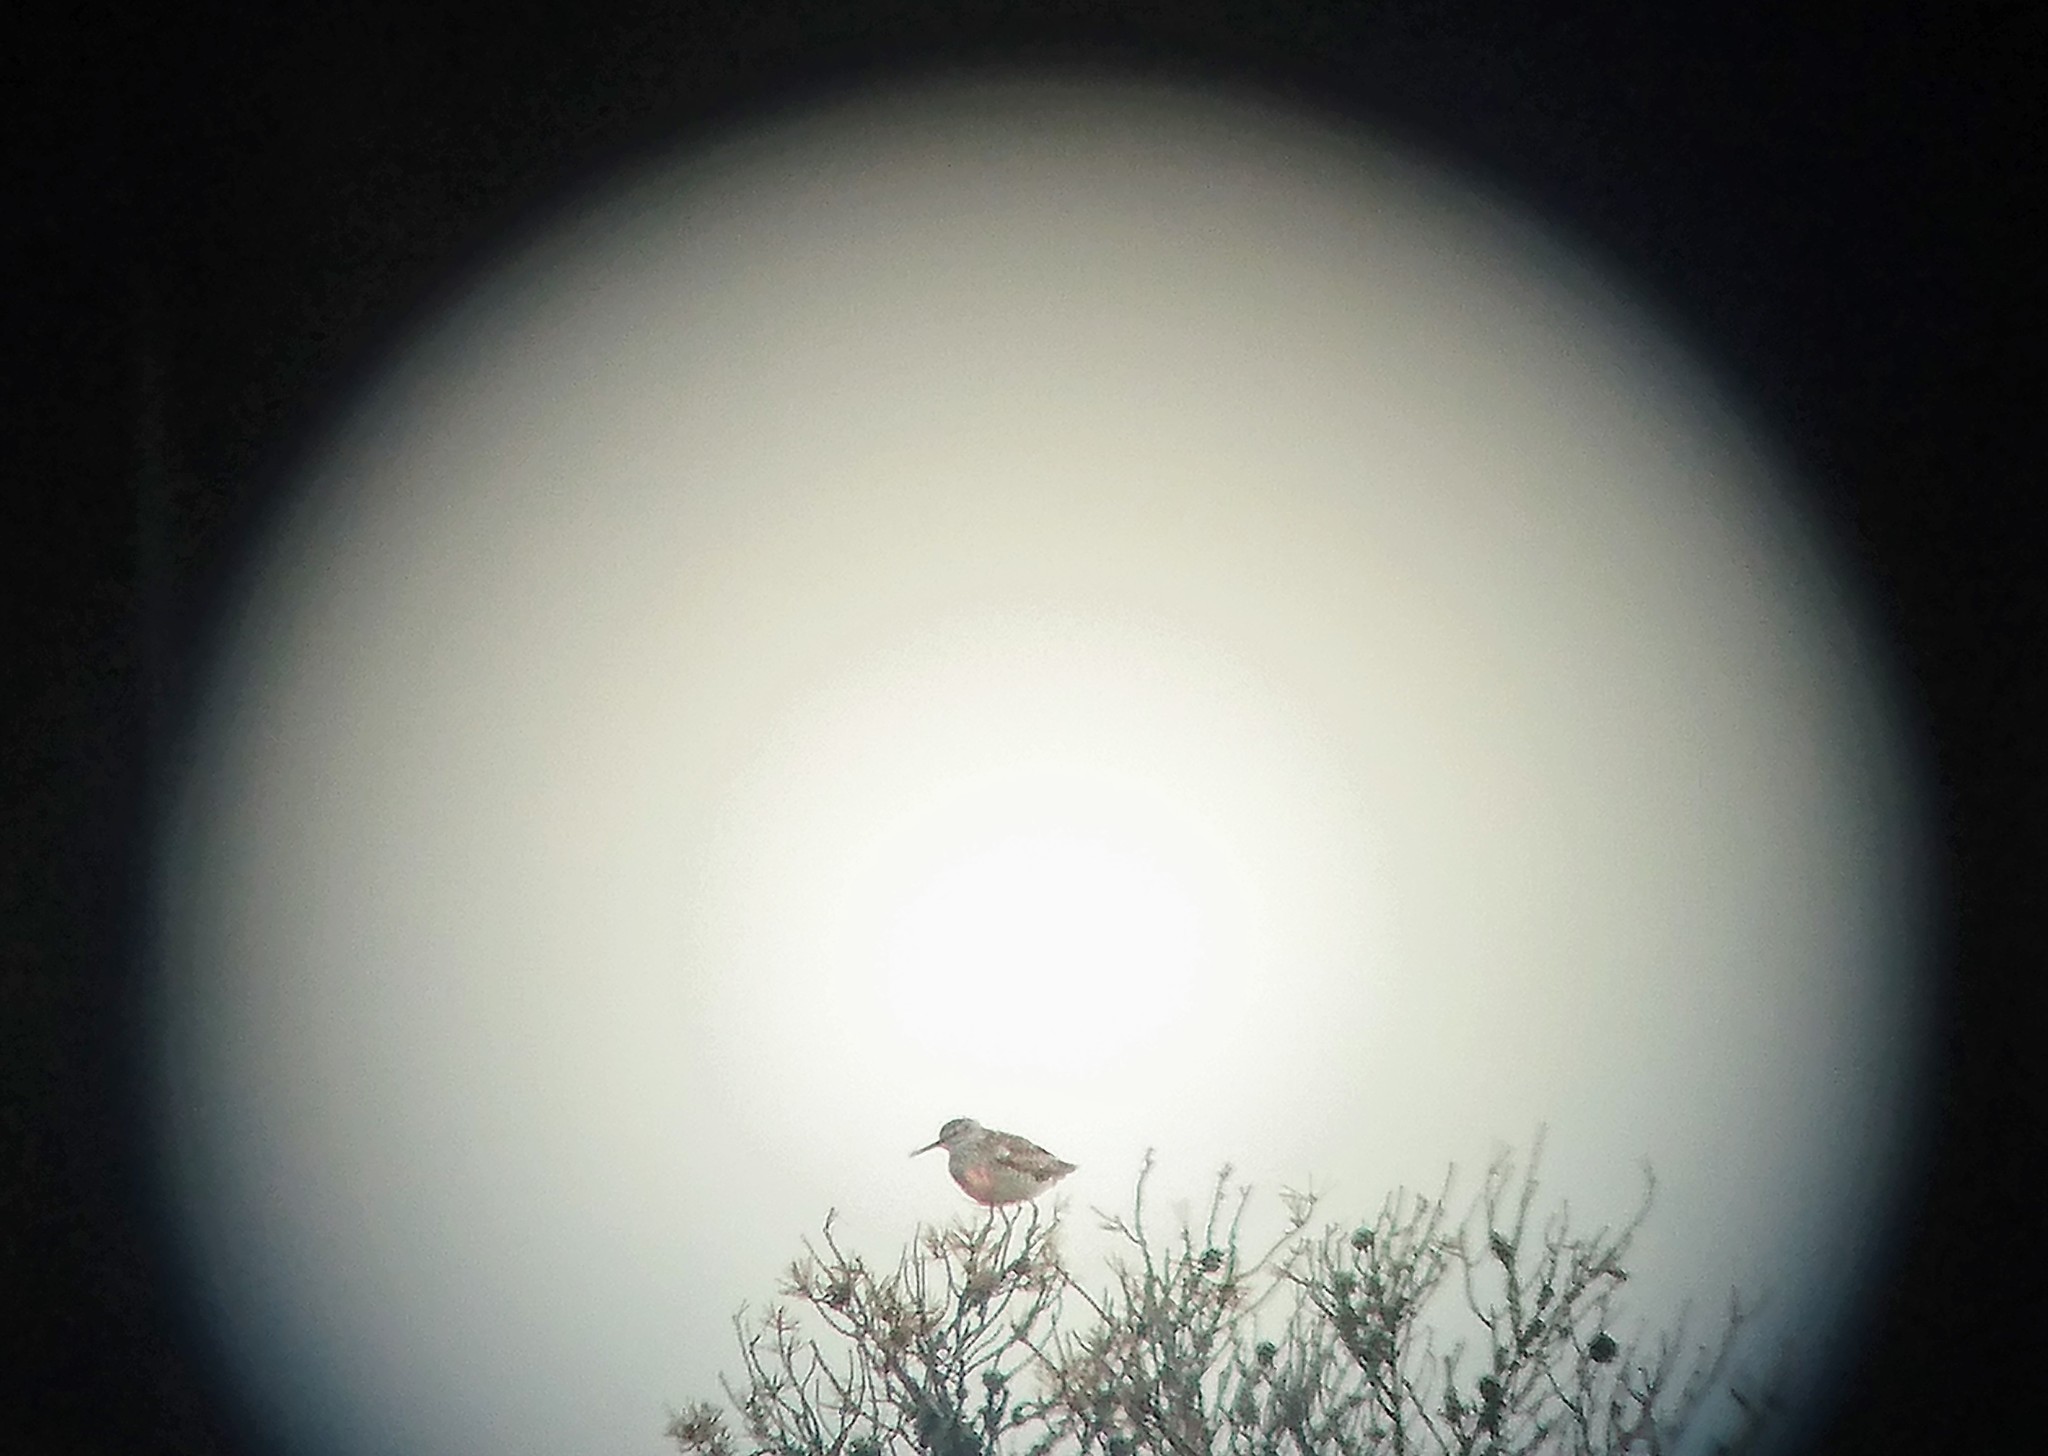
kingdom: Animalia
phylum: Chordata
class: Aves
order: Charadriiformes
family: Scolopacidae
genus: Tringa
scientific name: Tringa glareola
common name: Wood sandpiper
